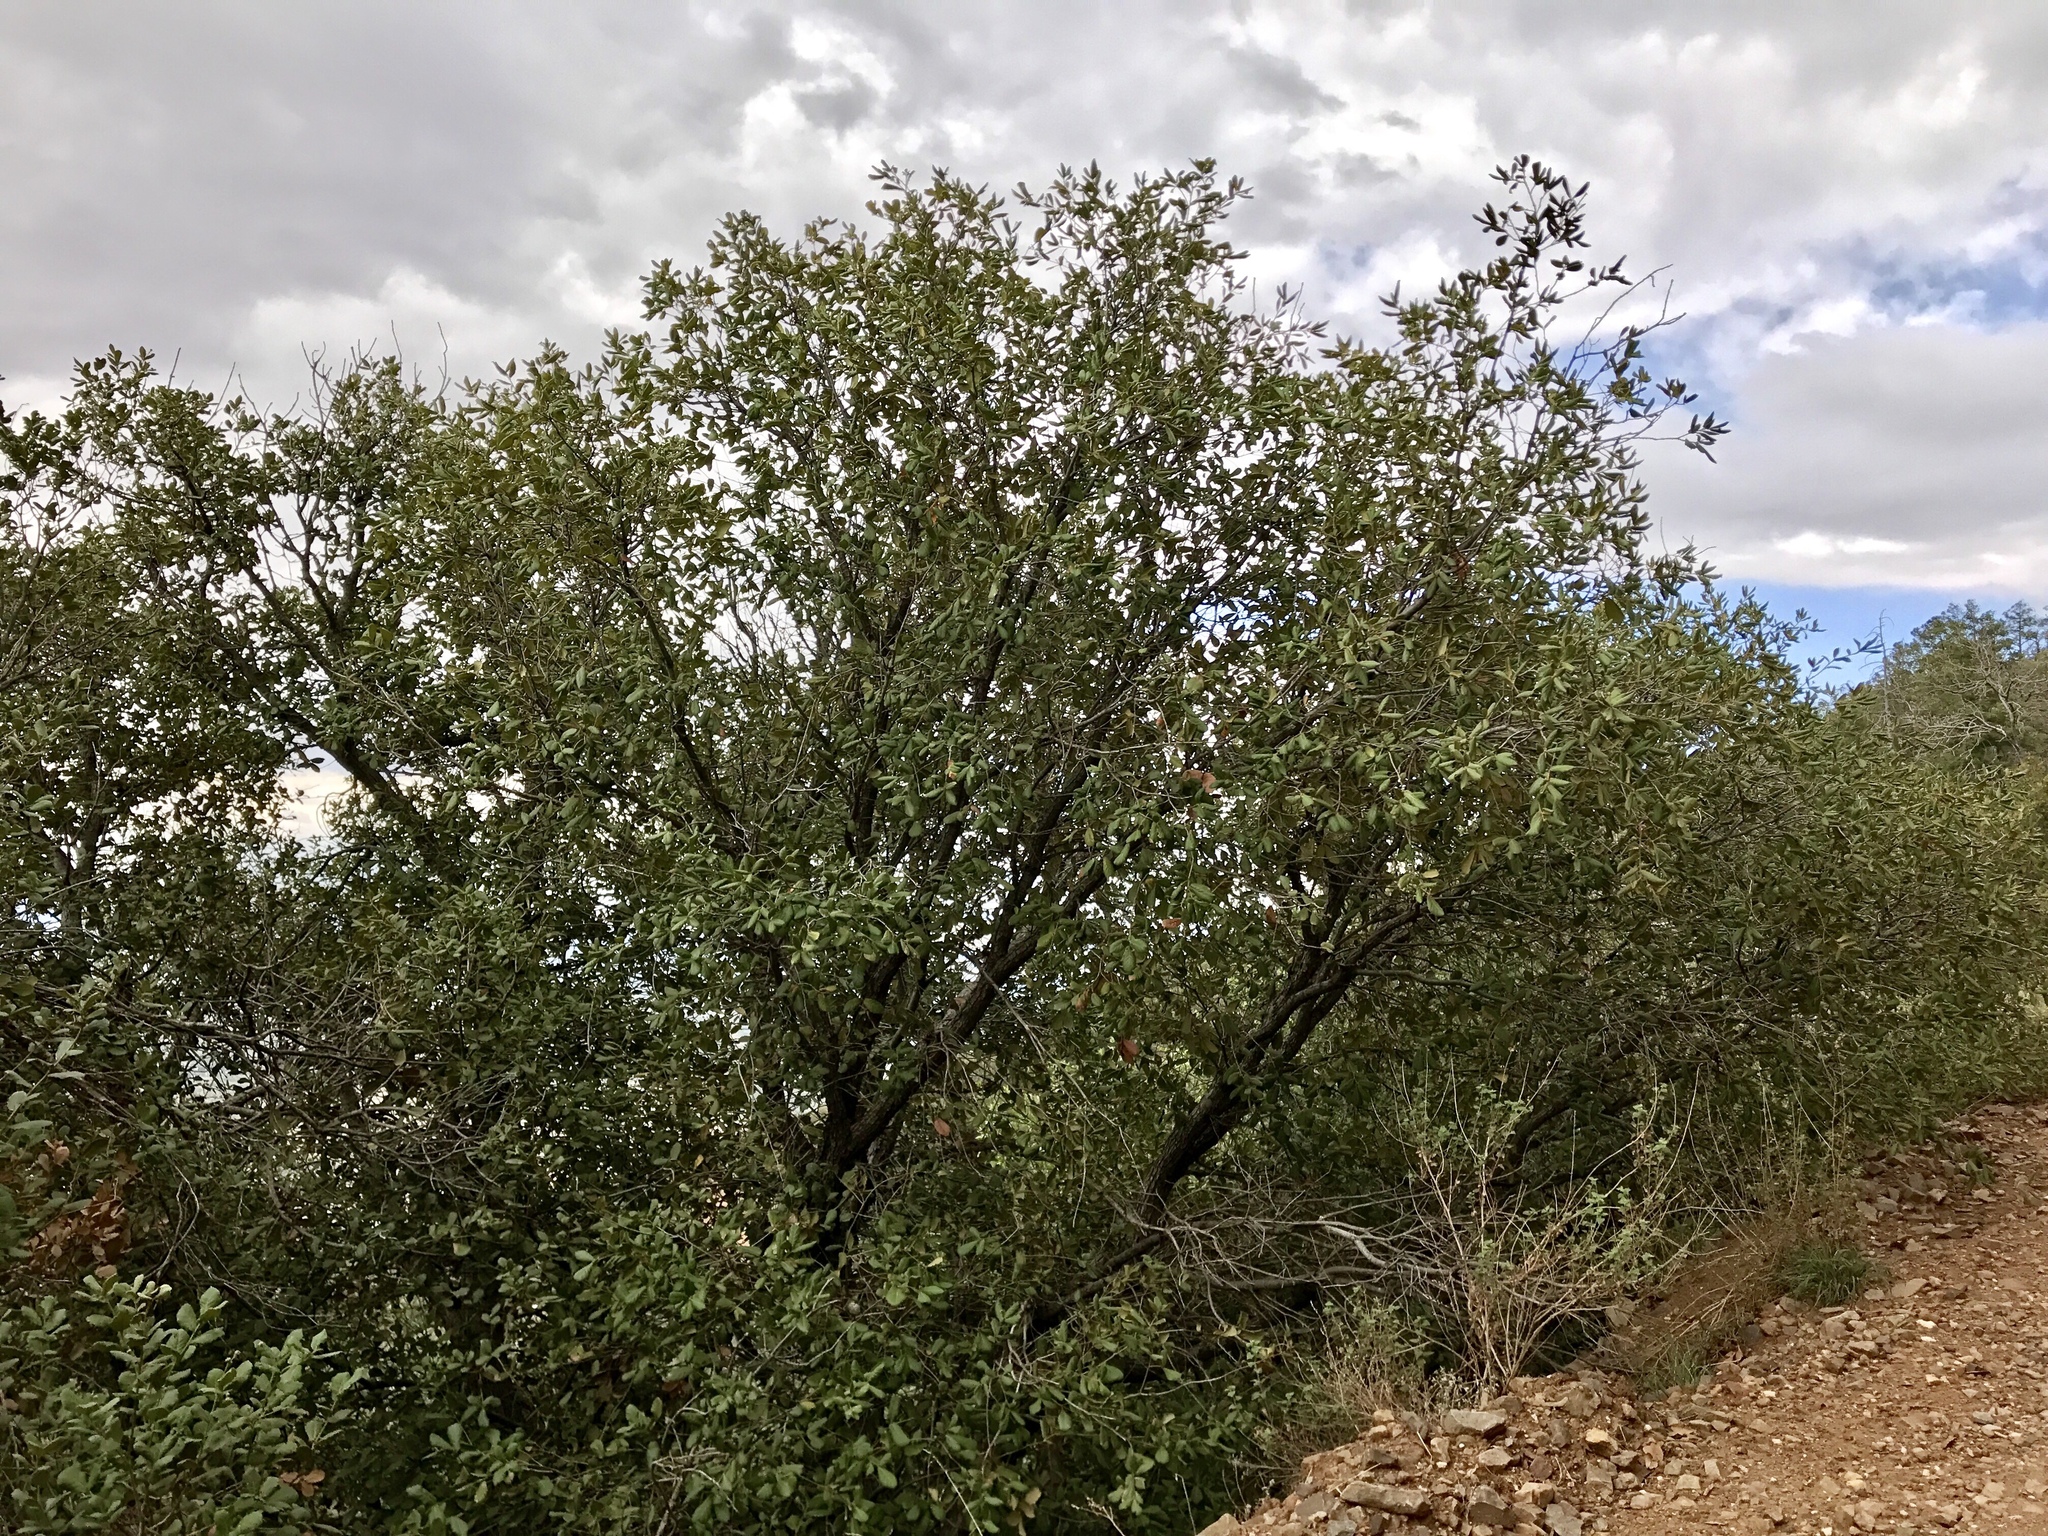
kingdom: Plantae
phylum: Tracheophyta
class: Magnoliopsida
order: Fagales
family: Fagaceae
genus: Quercus
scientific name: Quercus rugosa
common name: Netleaf oak
